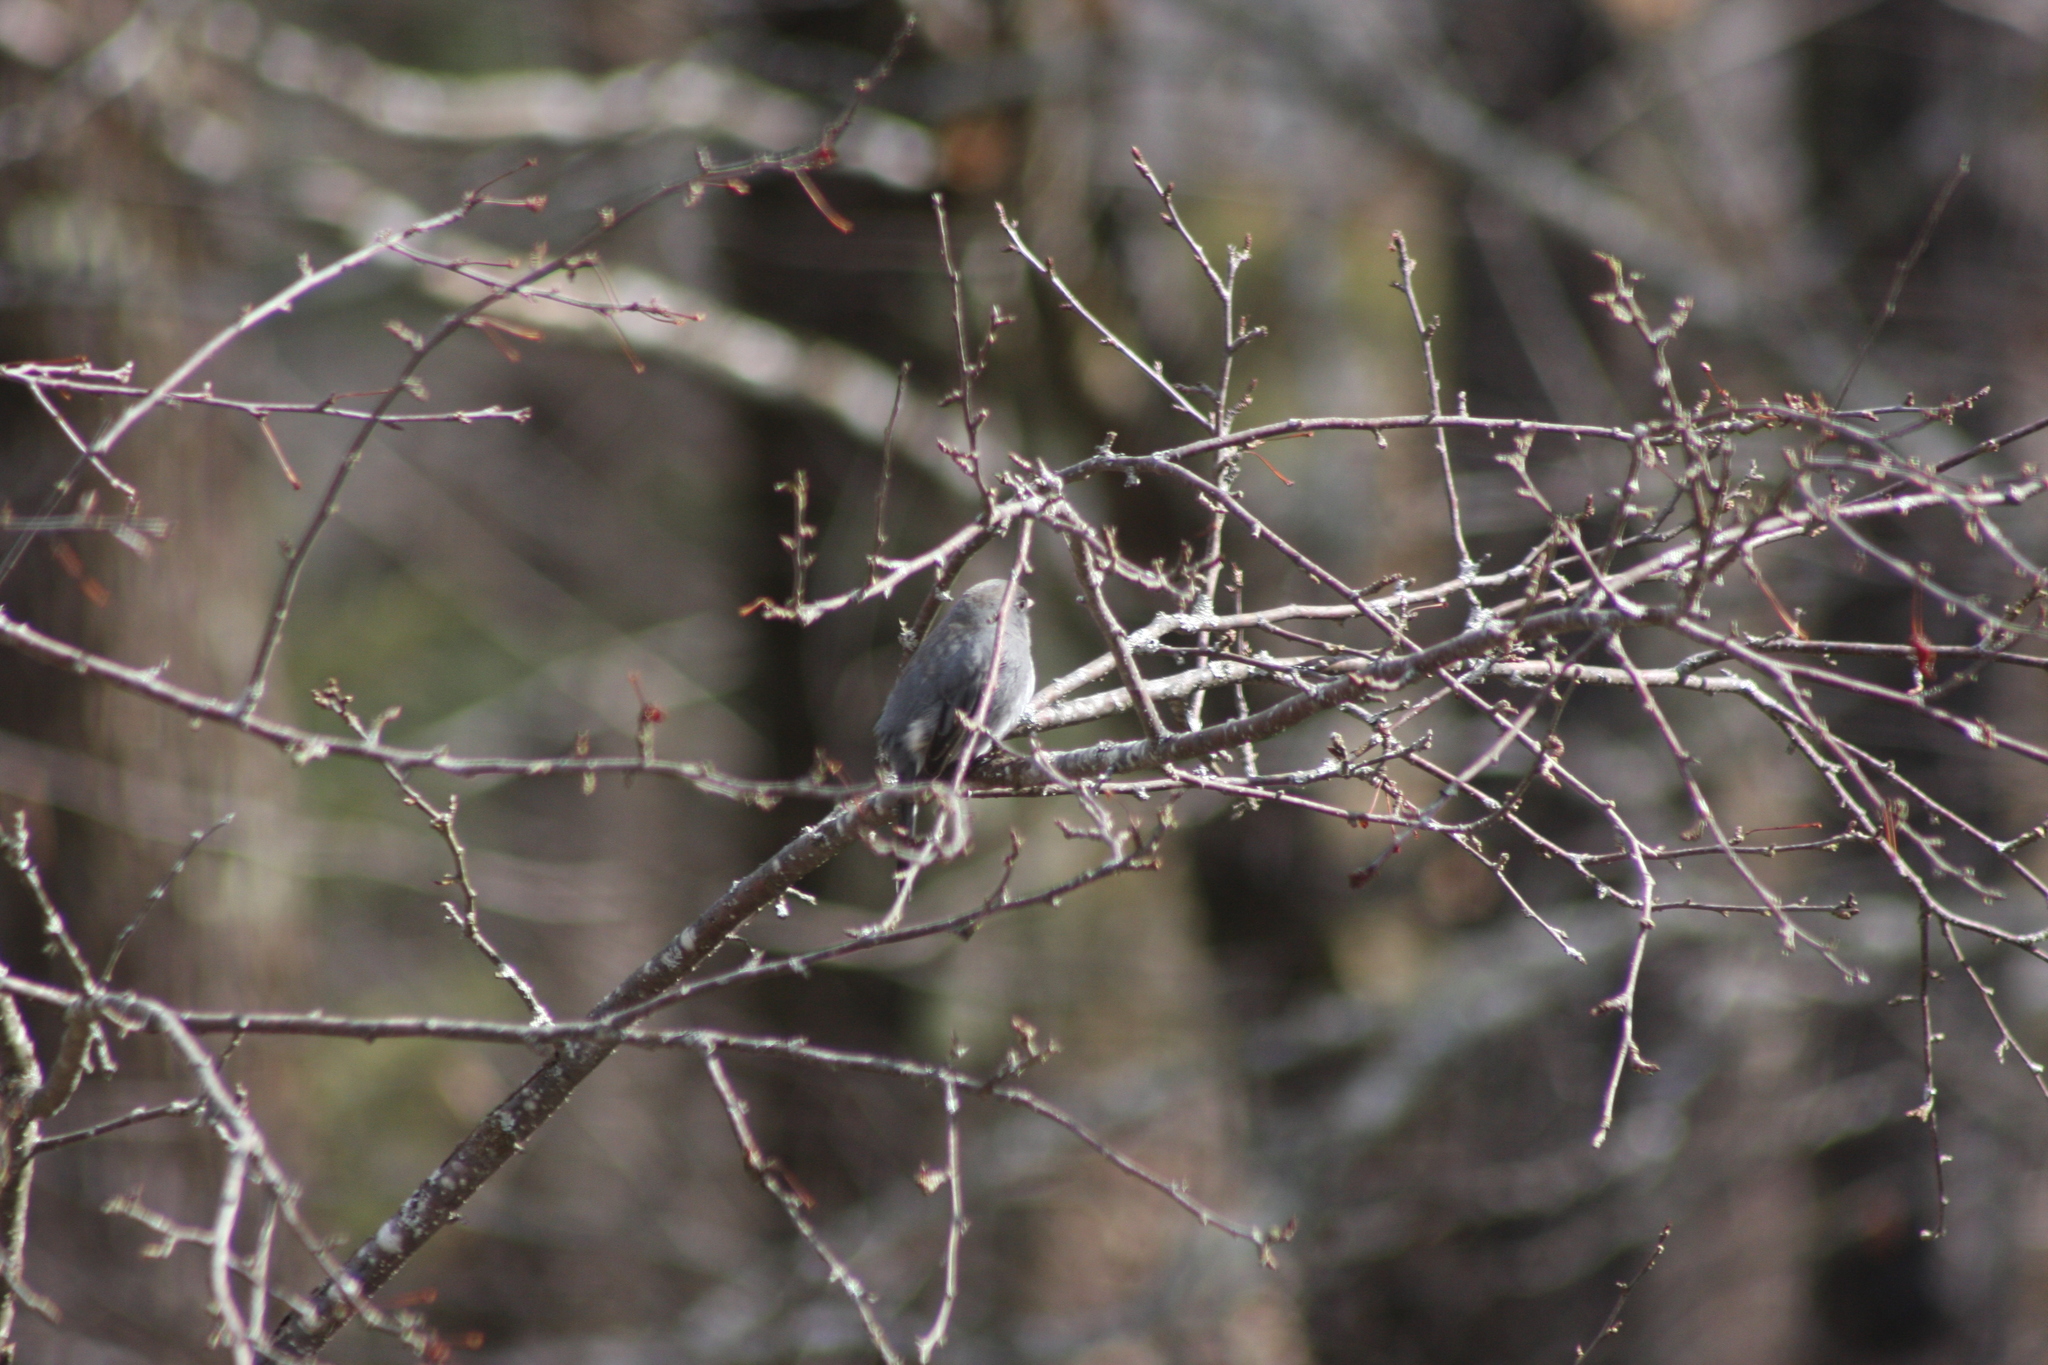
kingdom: Animalia
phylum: Chordata
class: Aves
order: Passeriformes
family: Passerellidae
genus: Junco
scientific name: Junco hyemalis
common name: Dark-eyed junco
